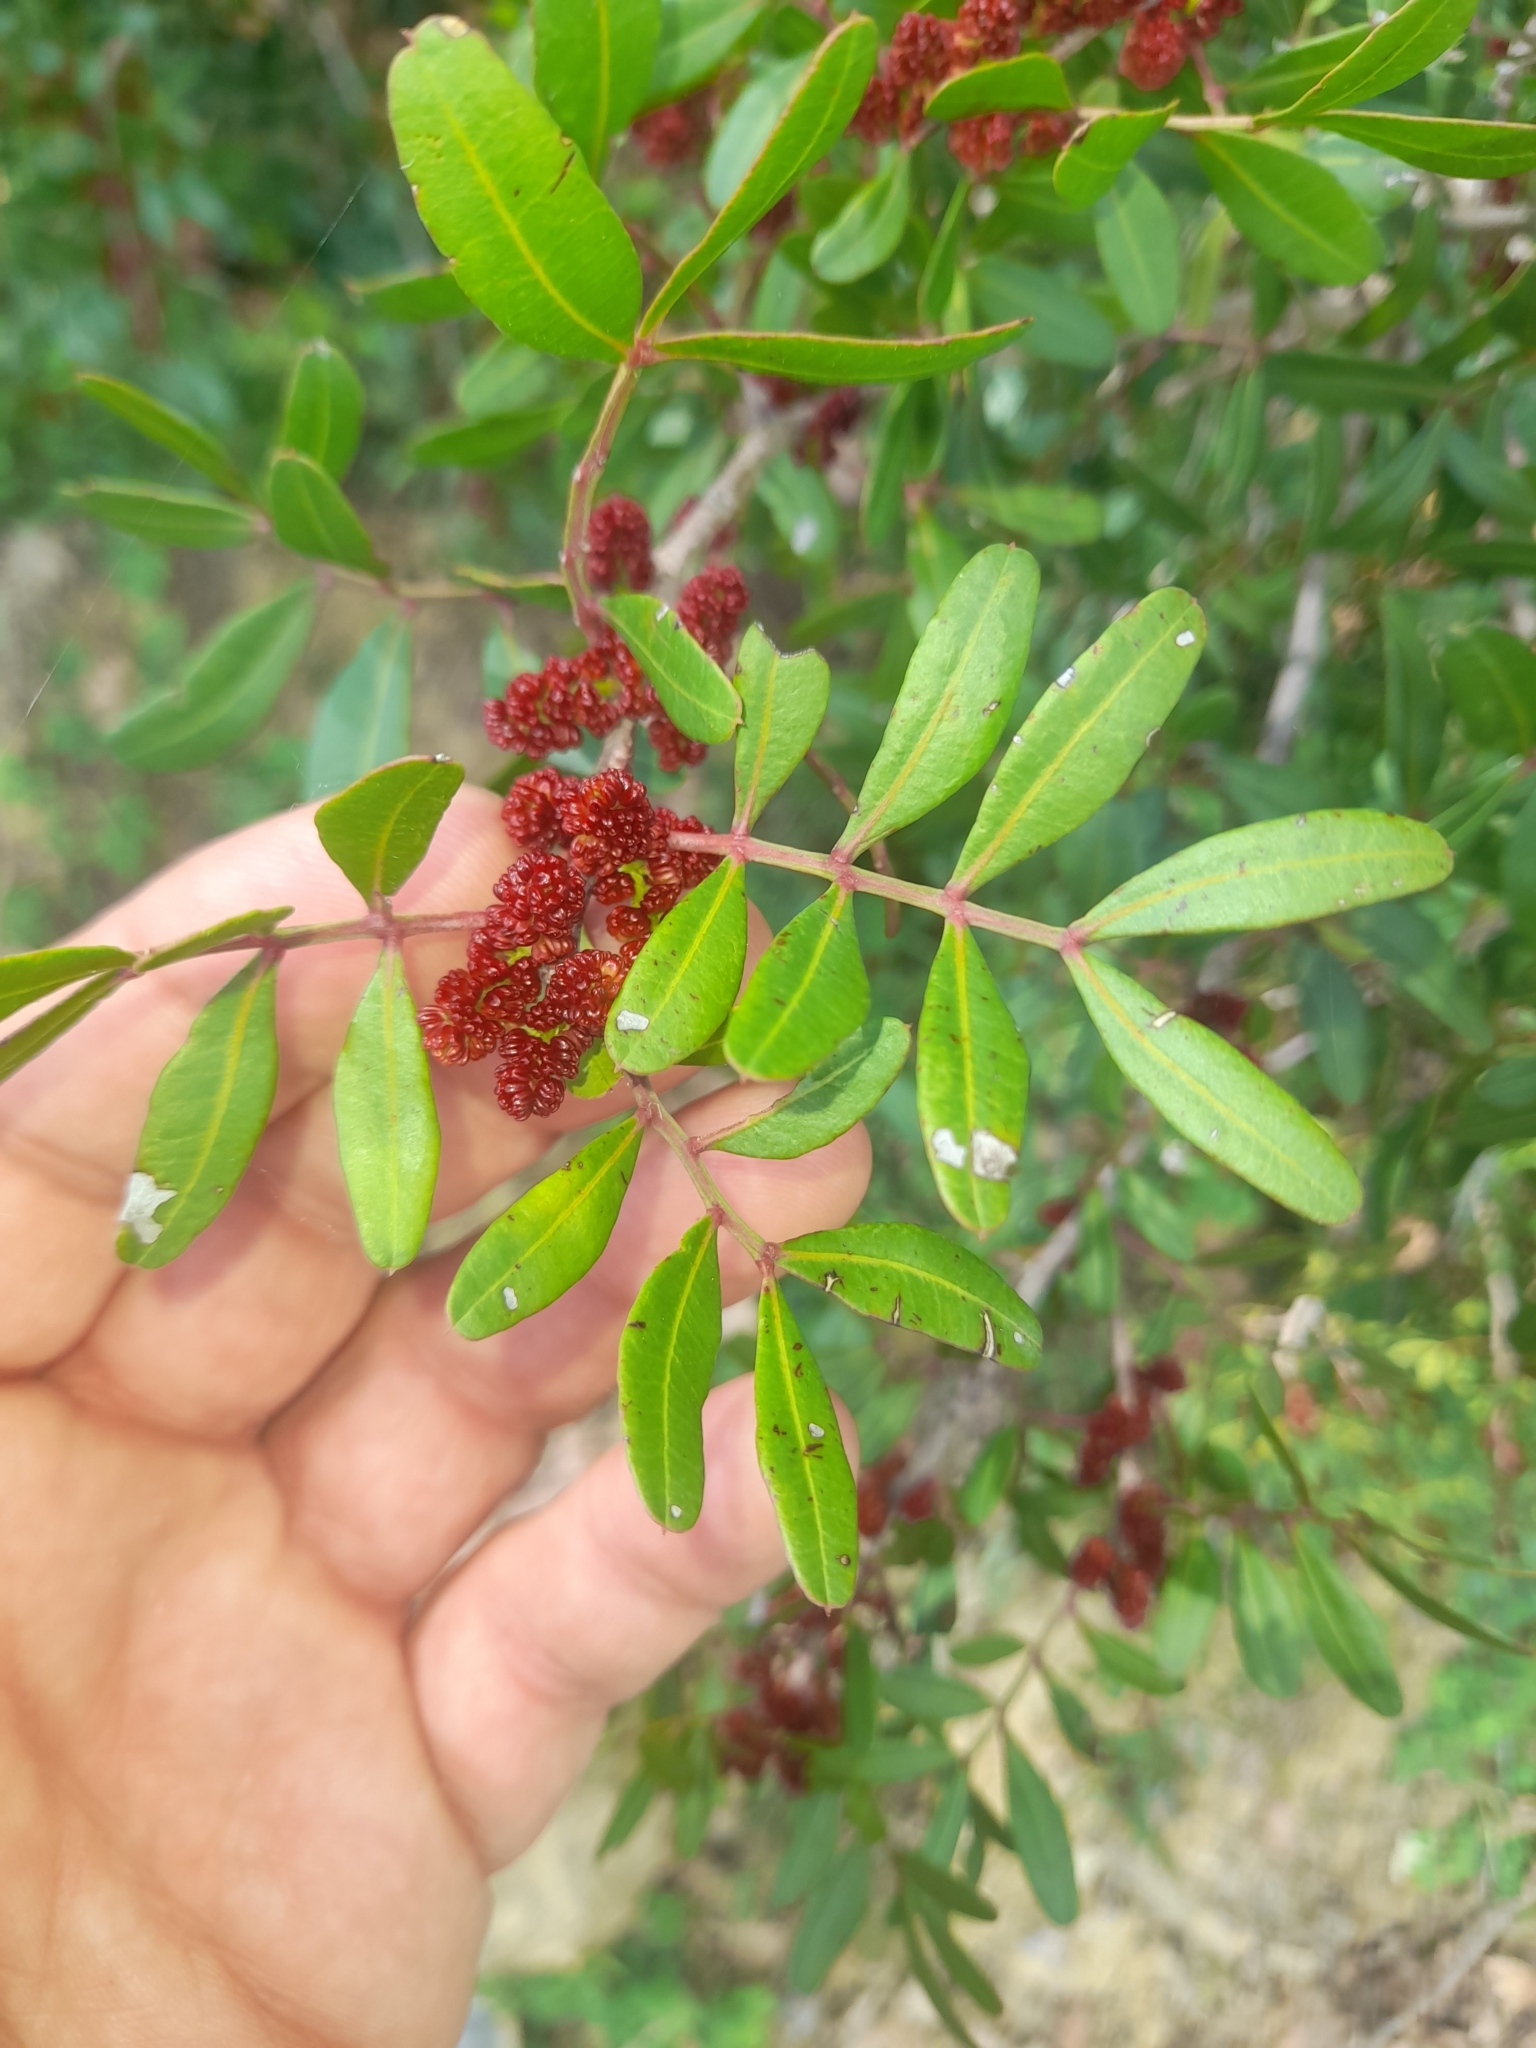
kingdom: Plantae
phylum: Tracheophyta
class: Magnoliopsida
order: Sapindales
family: Anacardiaceae
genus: Pistacia
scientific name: Pistacia lentiscus
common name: Lentisk
